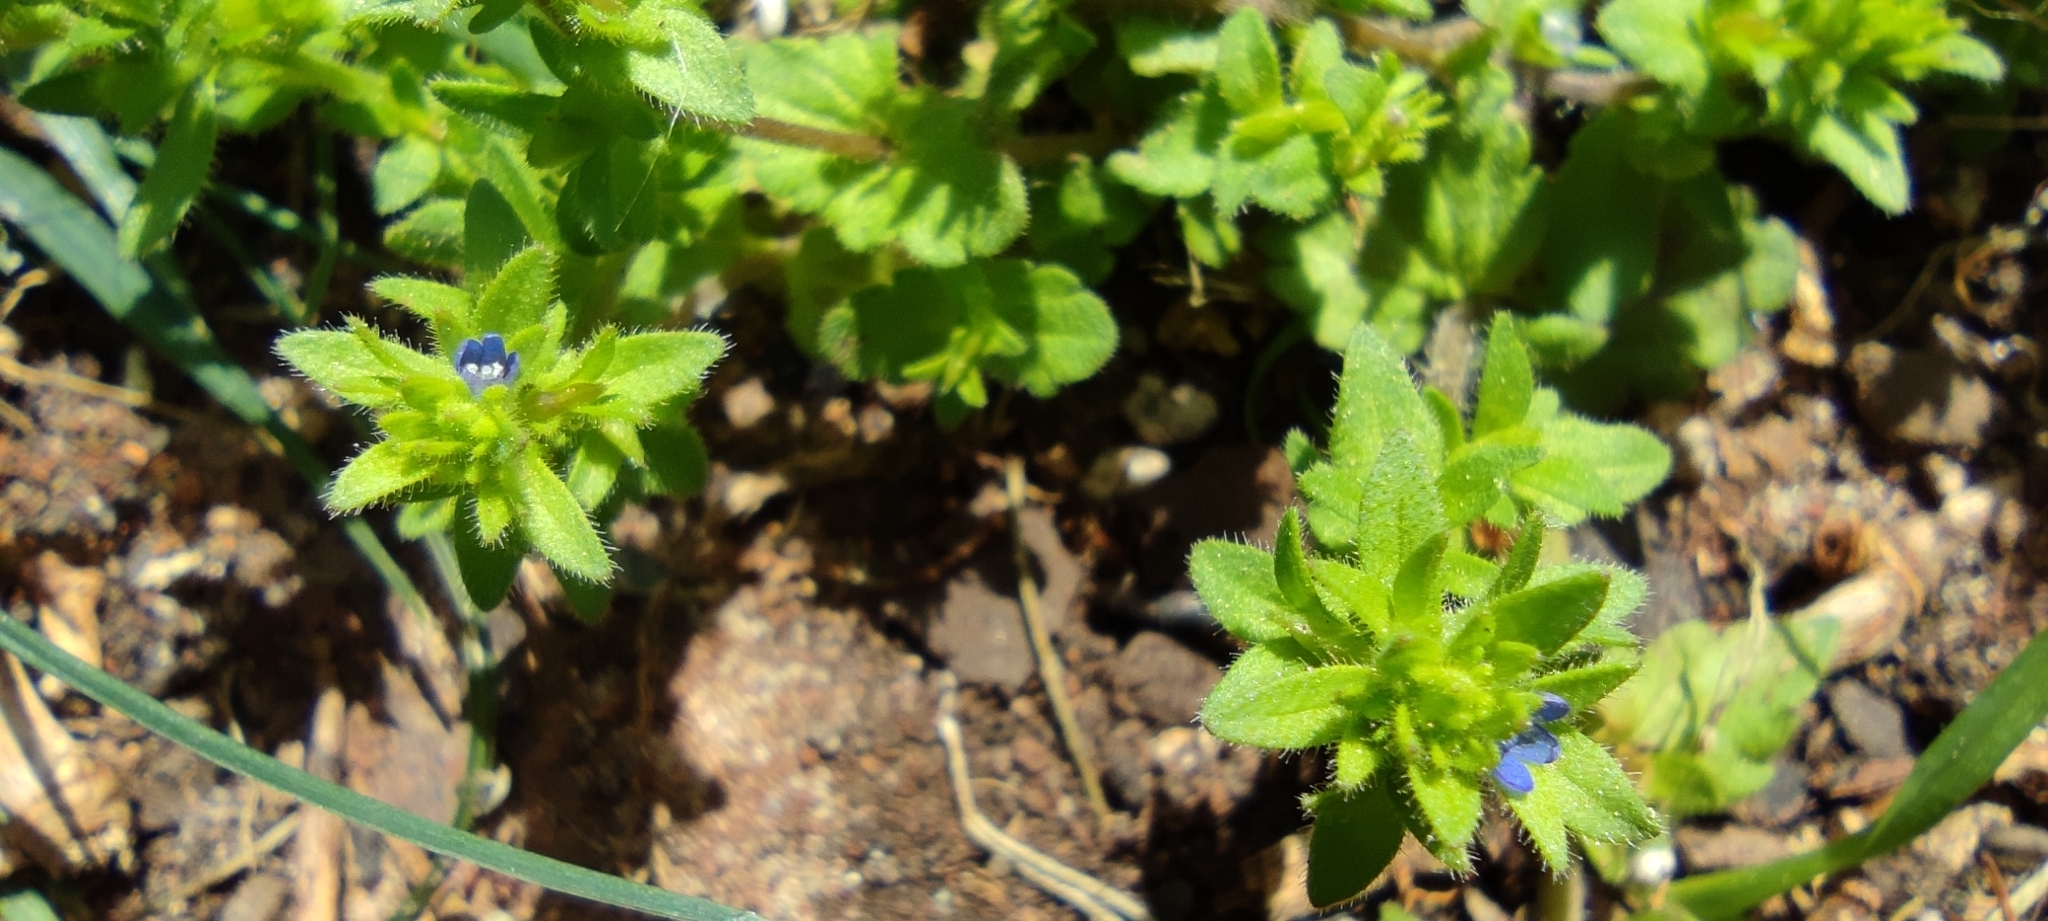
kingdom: Plantae
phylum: Tracheophyta
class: Magnoliopsida
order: Lamiales
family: Plantaginaceae
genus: Veronica
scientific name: Veronica arvensis
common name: Corn speedwell
